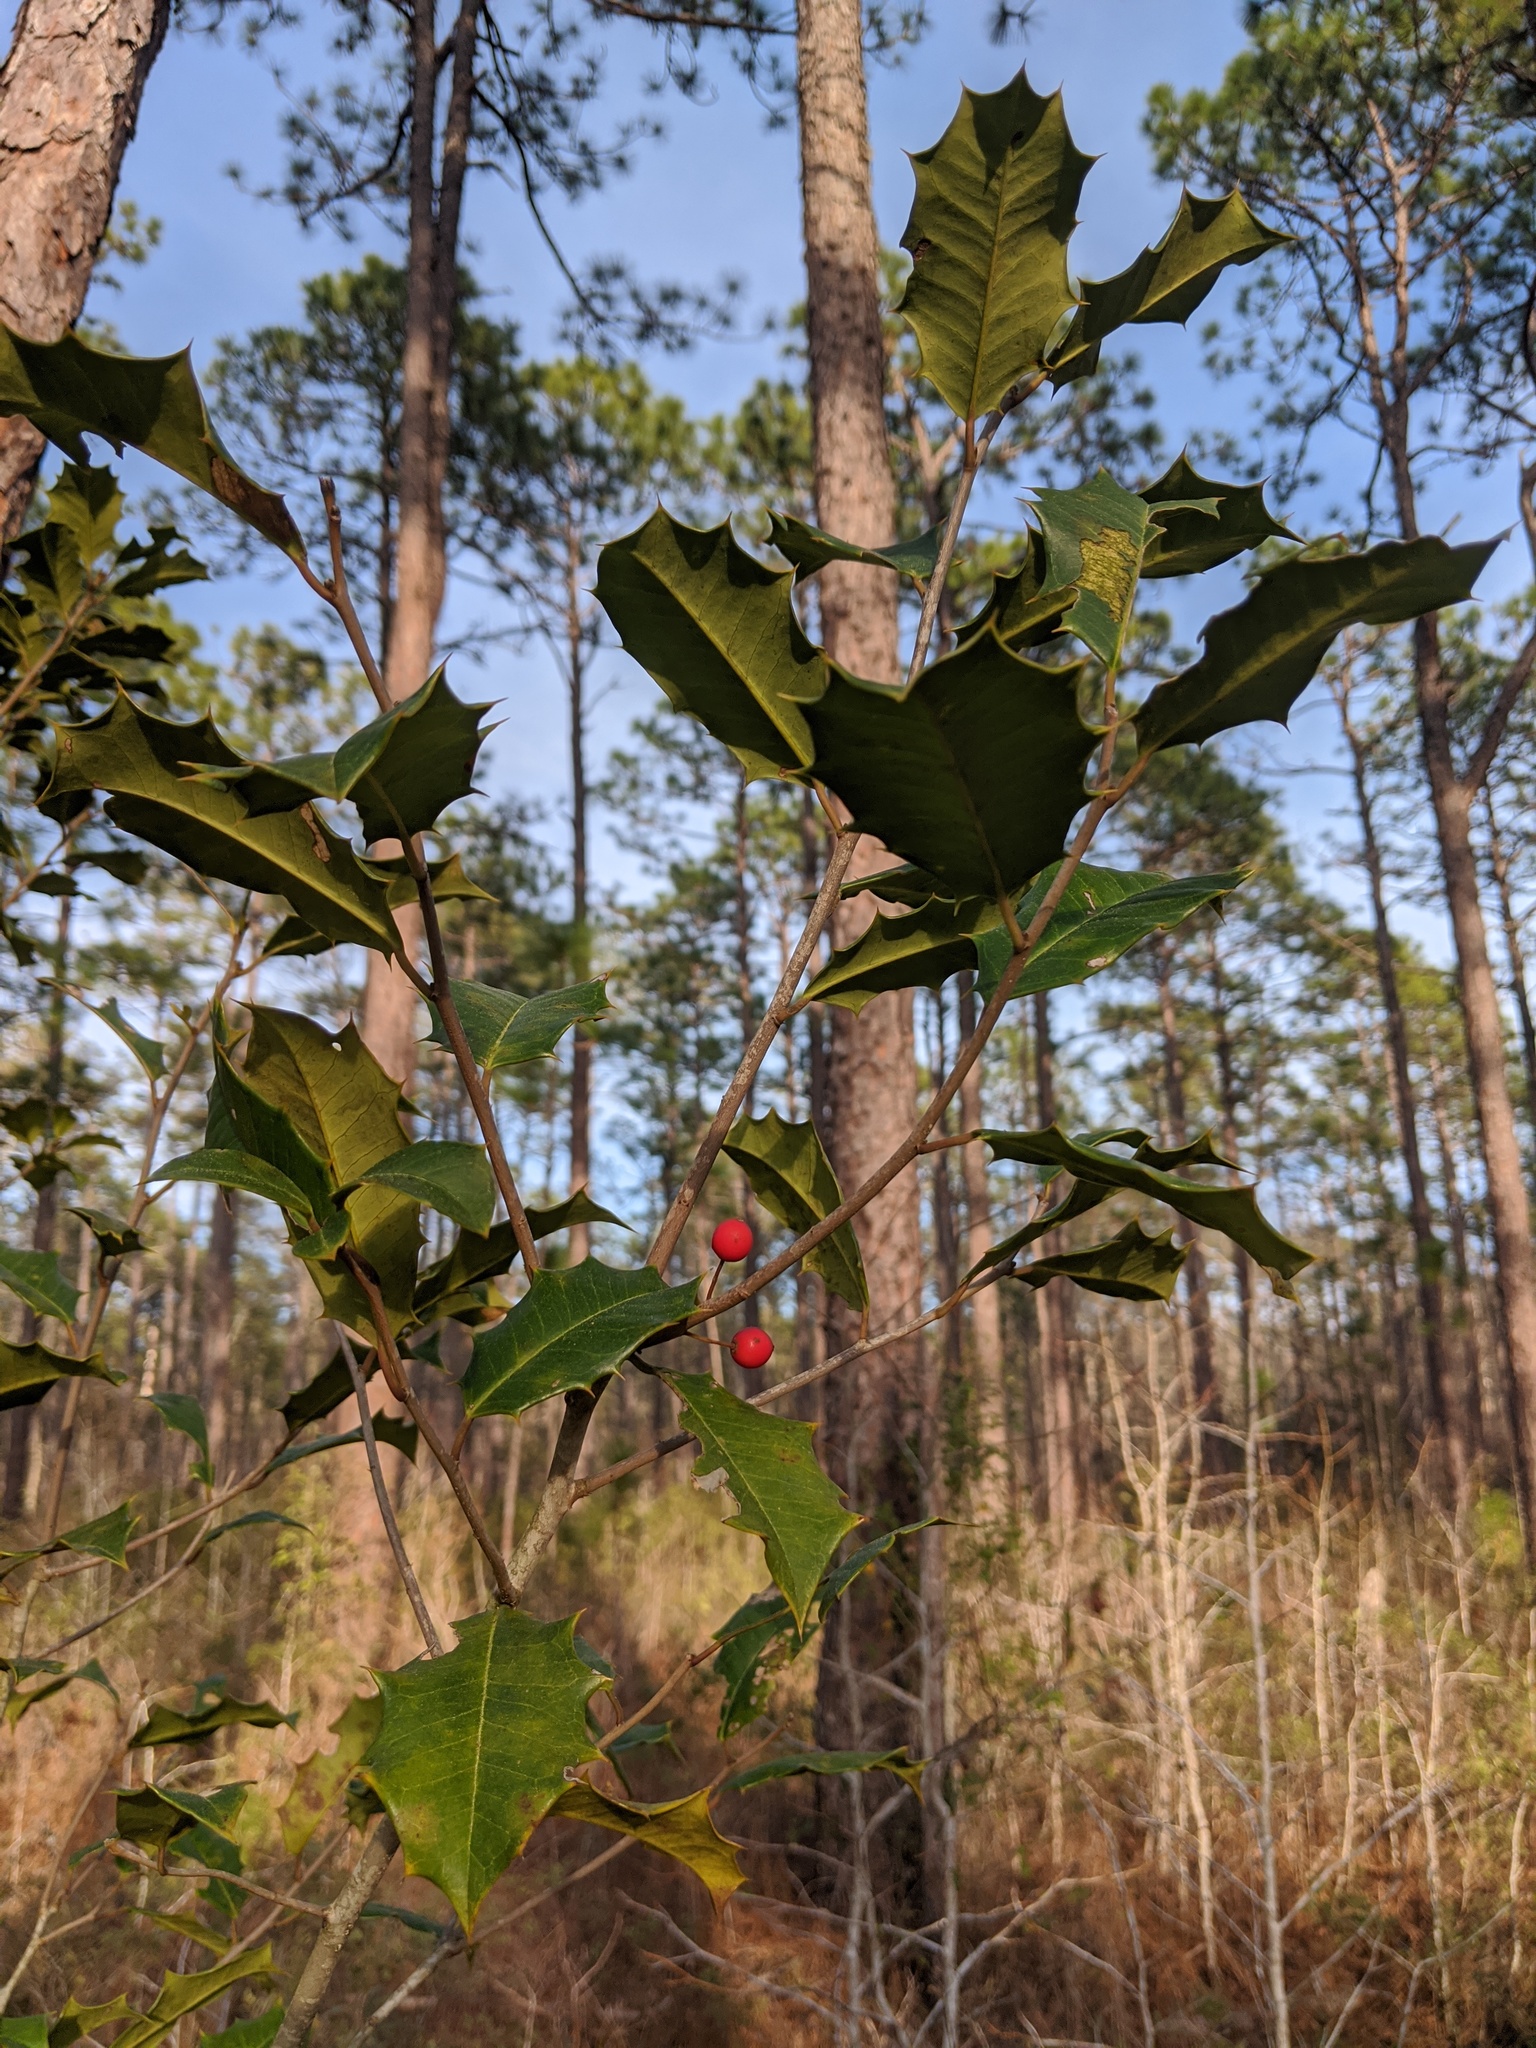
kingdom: Plantae
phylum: Tracheophyta
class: Magnoliopsida
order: Aquifoliales
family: Aquifoliaceae
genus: Ilex
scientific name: Ilex opaca
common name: American holly
